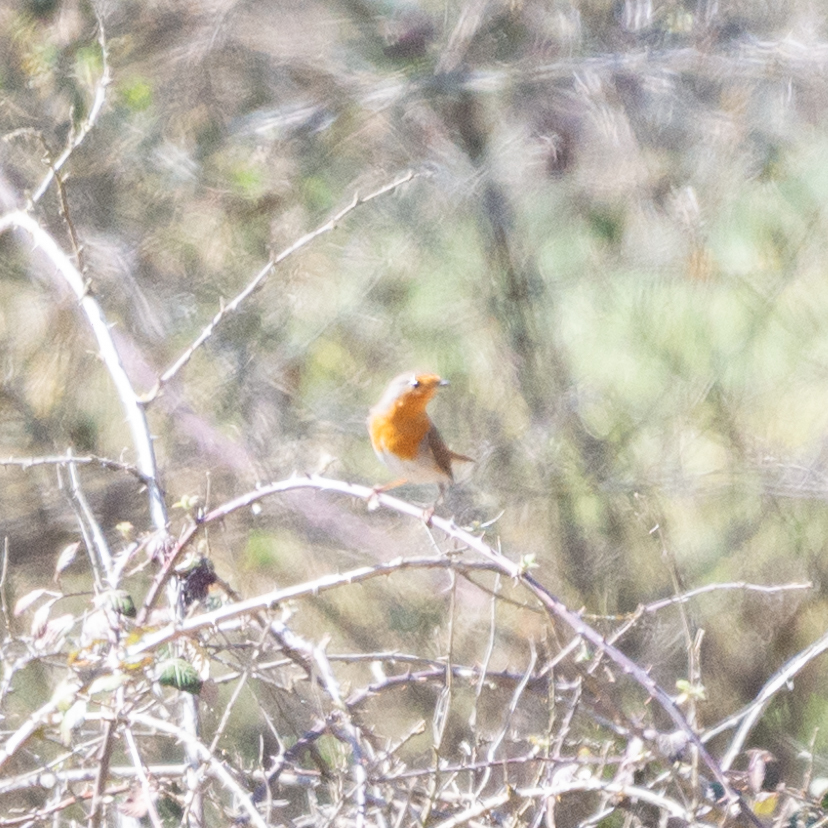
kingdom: Animalia
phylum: Chordata
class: Aves
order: Passeriformes
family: Muscicapidae
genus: Erithacus
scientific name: Erithacus rubecula
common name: European robin
